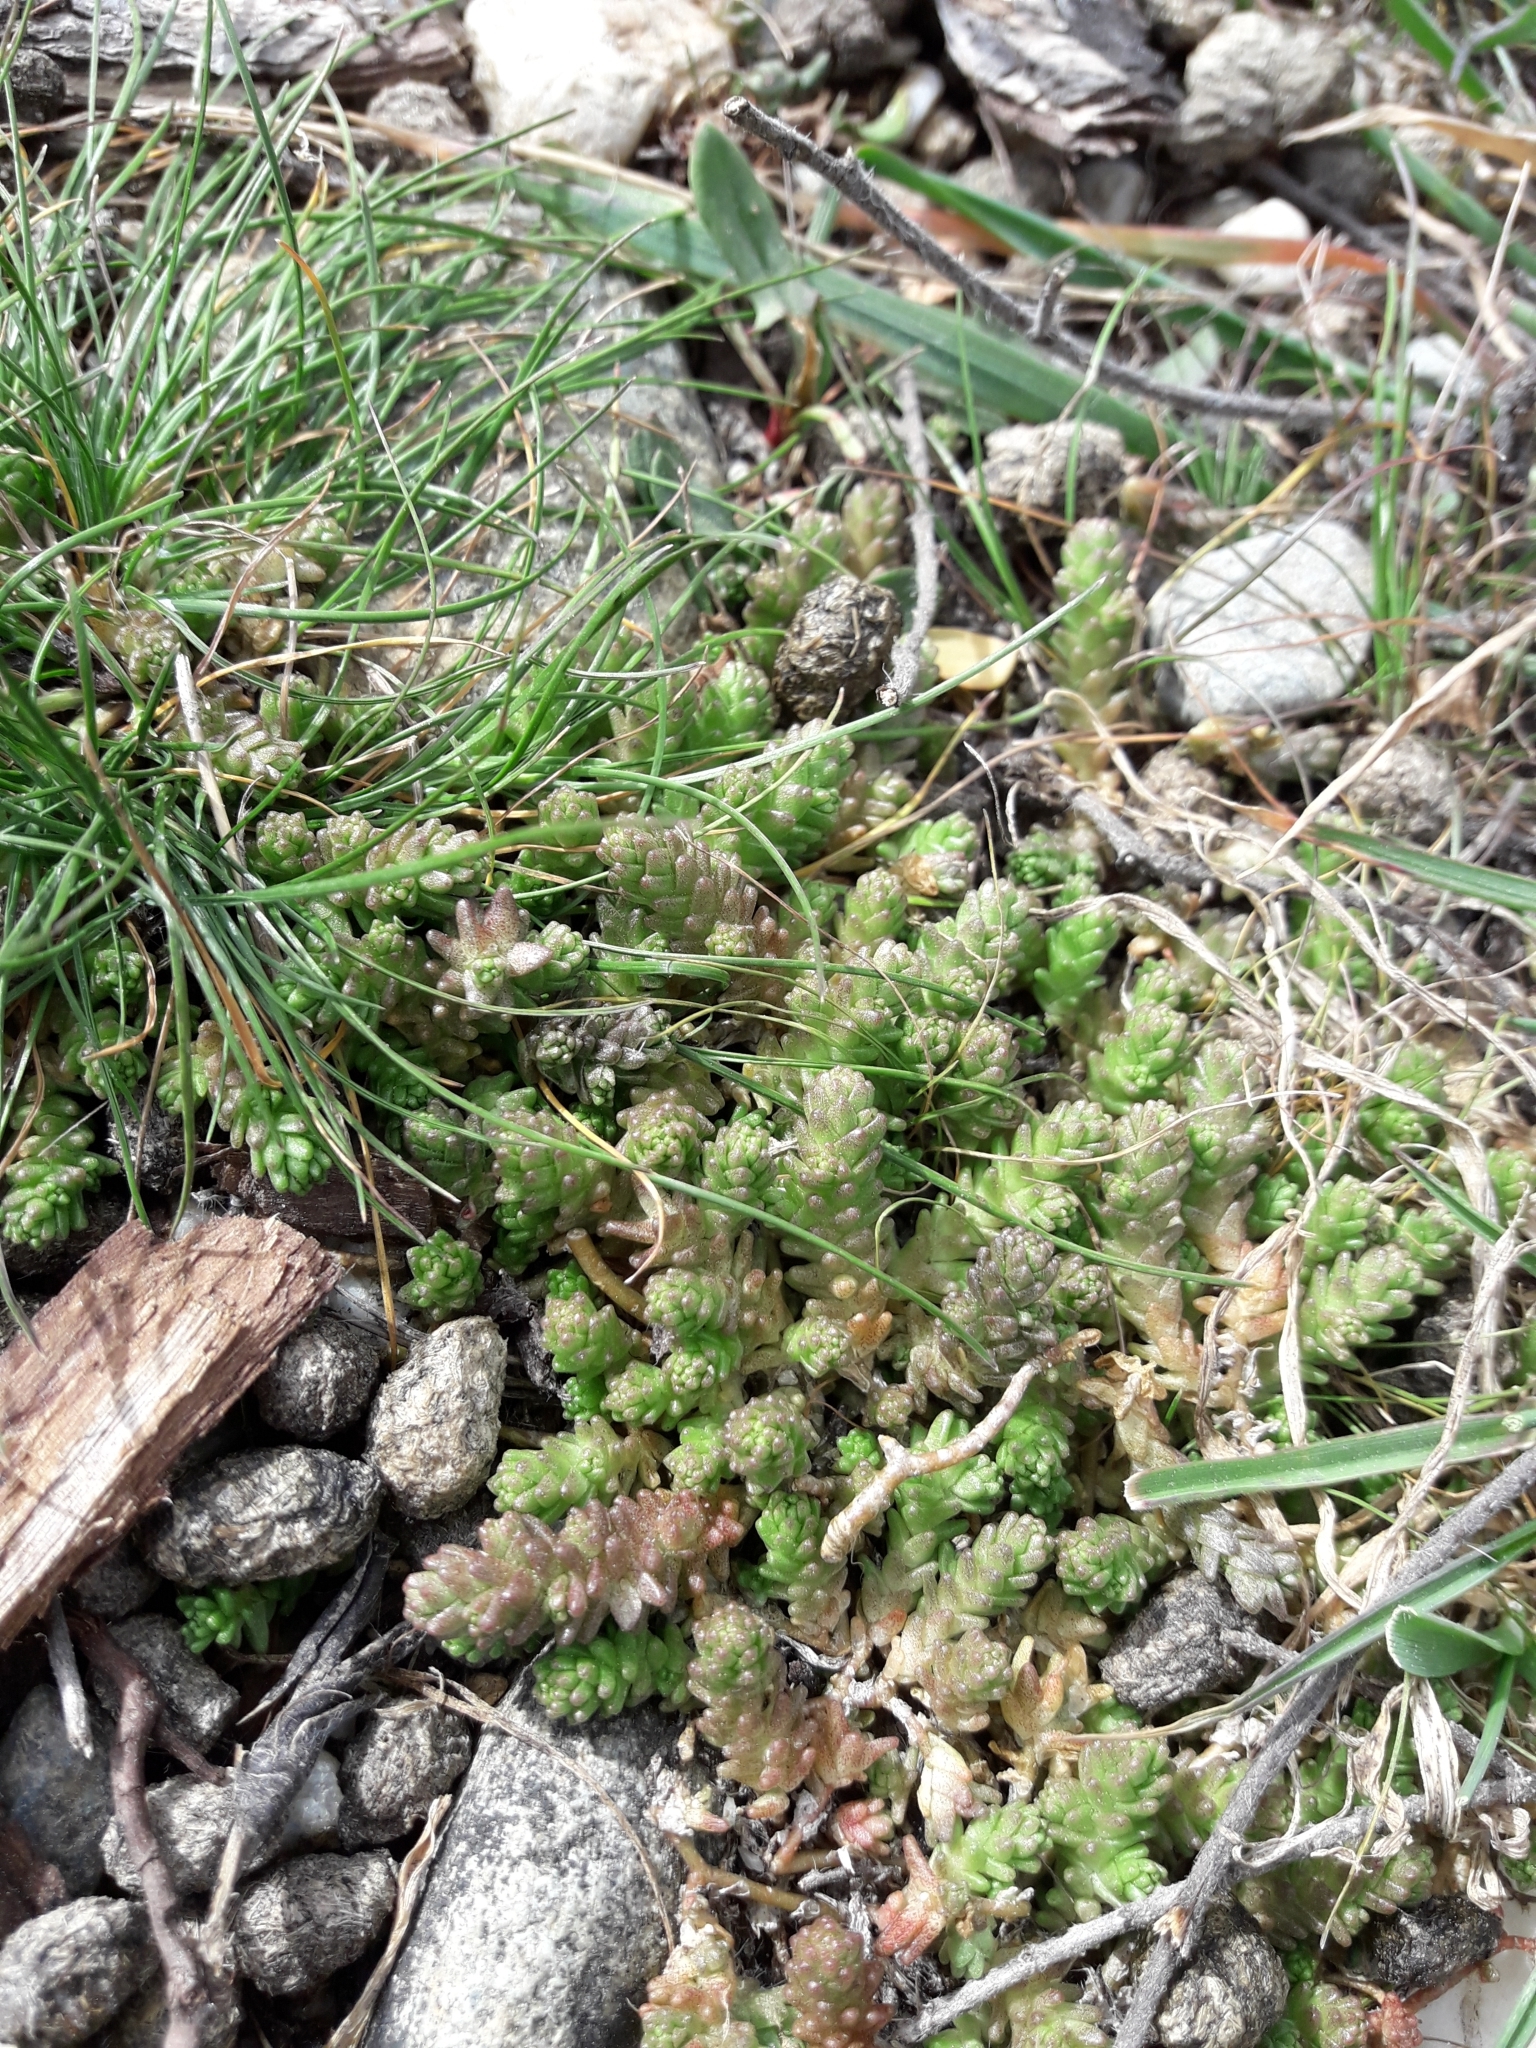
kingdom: Plantae
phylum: Tracheophyta
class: Magnoliopsida
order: Saxifragales
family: Crassulaceae
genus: Sedum
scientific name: Sedum acre
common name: Biting stonecrop
